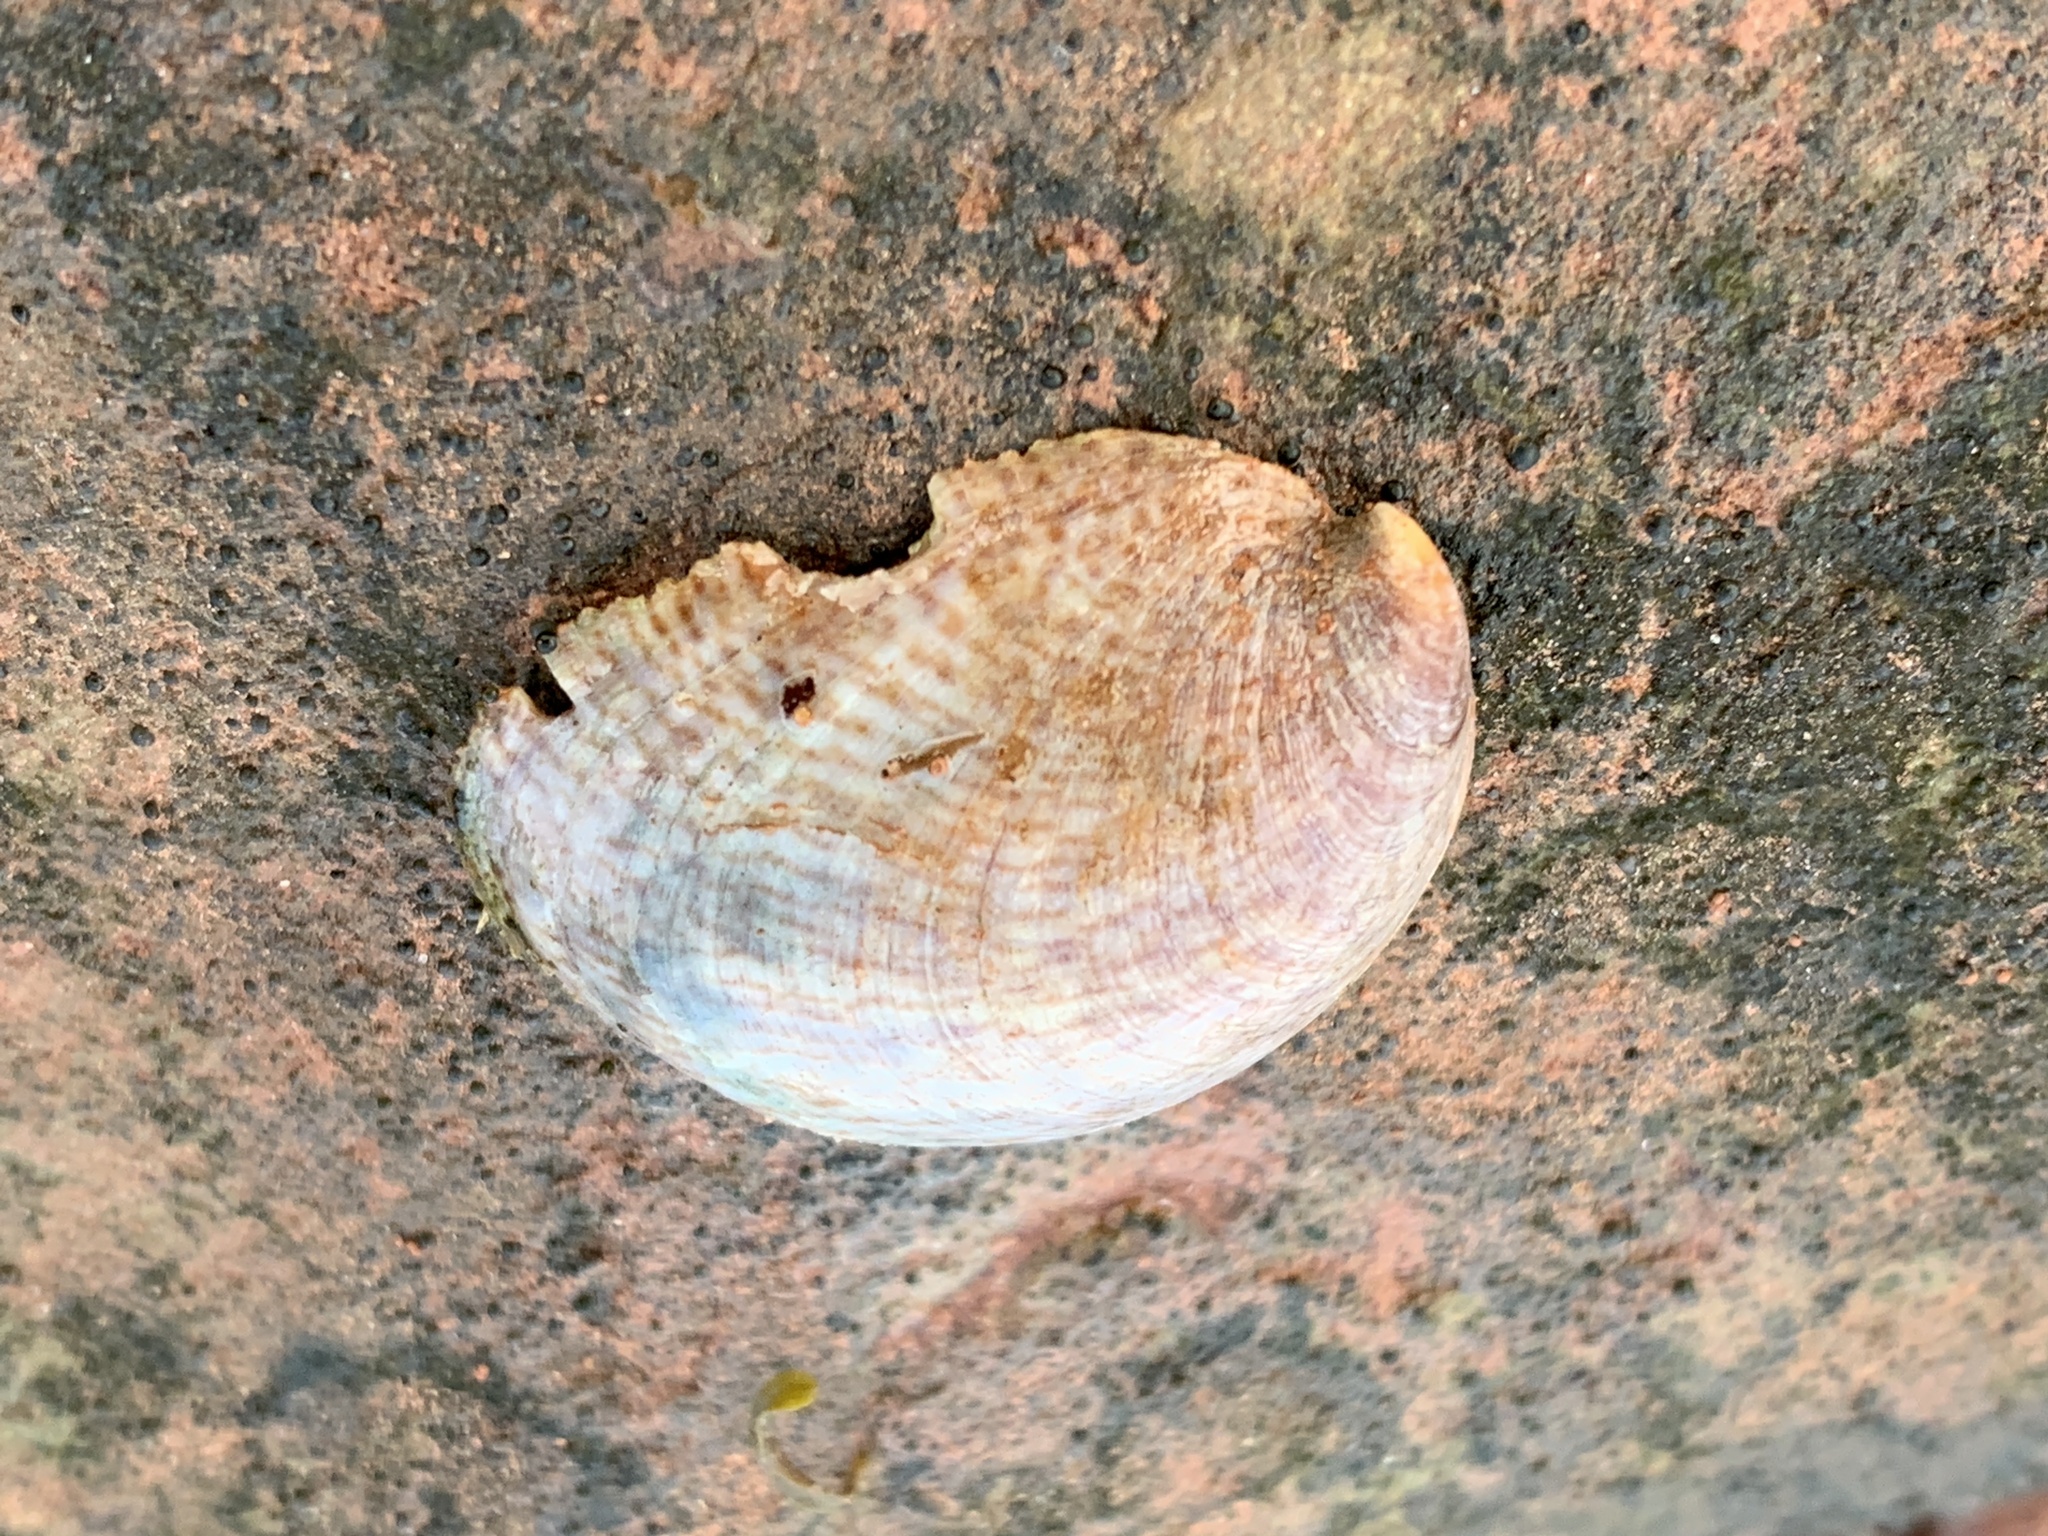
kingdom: Animalia
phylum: Mollusca
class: Gastropoda
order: Littorinimorpha
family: Calyptraeidae
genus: Crepidula
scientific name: Crepidula fornicata
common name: Slipper limpet
